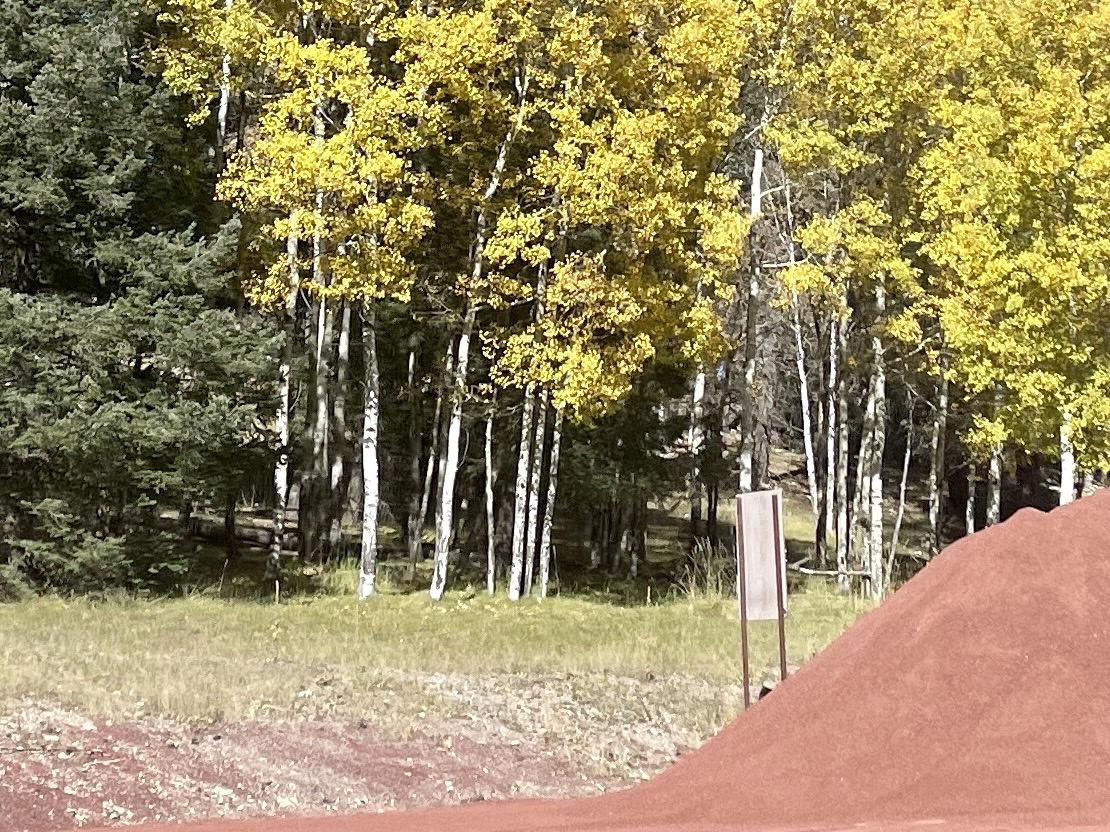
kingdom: Plantae
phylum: Tracheophyta
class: Magnoliopsida
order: Malpighiales
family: Salicaceae
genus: Populus
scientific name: Populus tremuloides
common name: Quaking aspen
